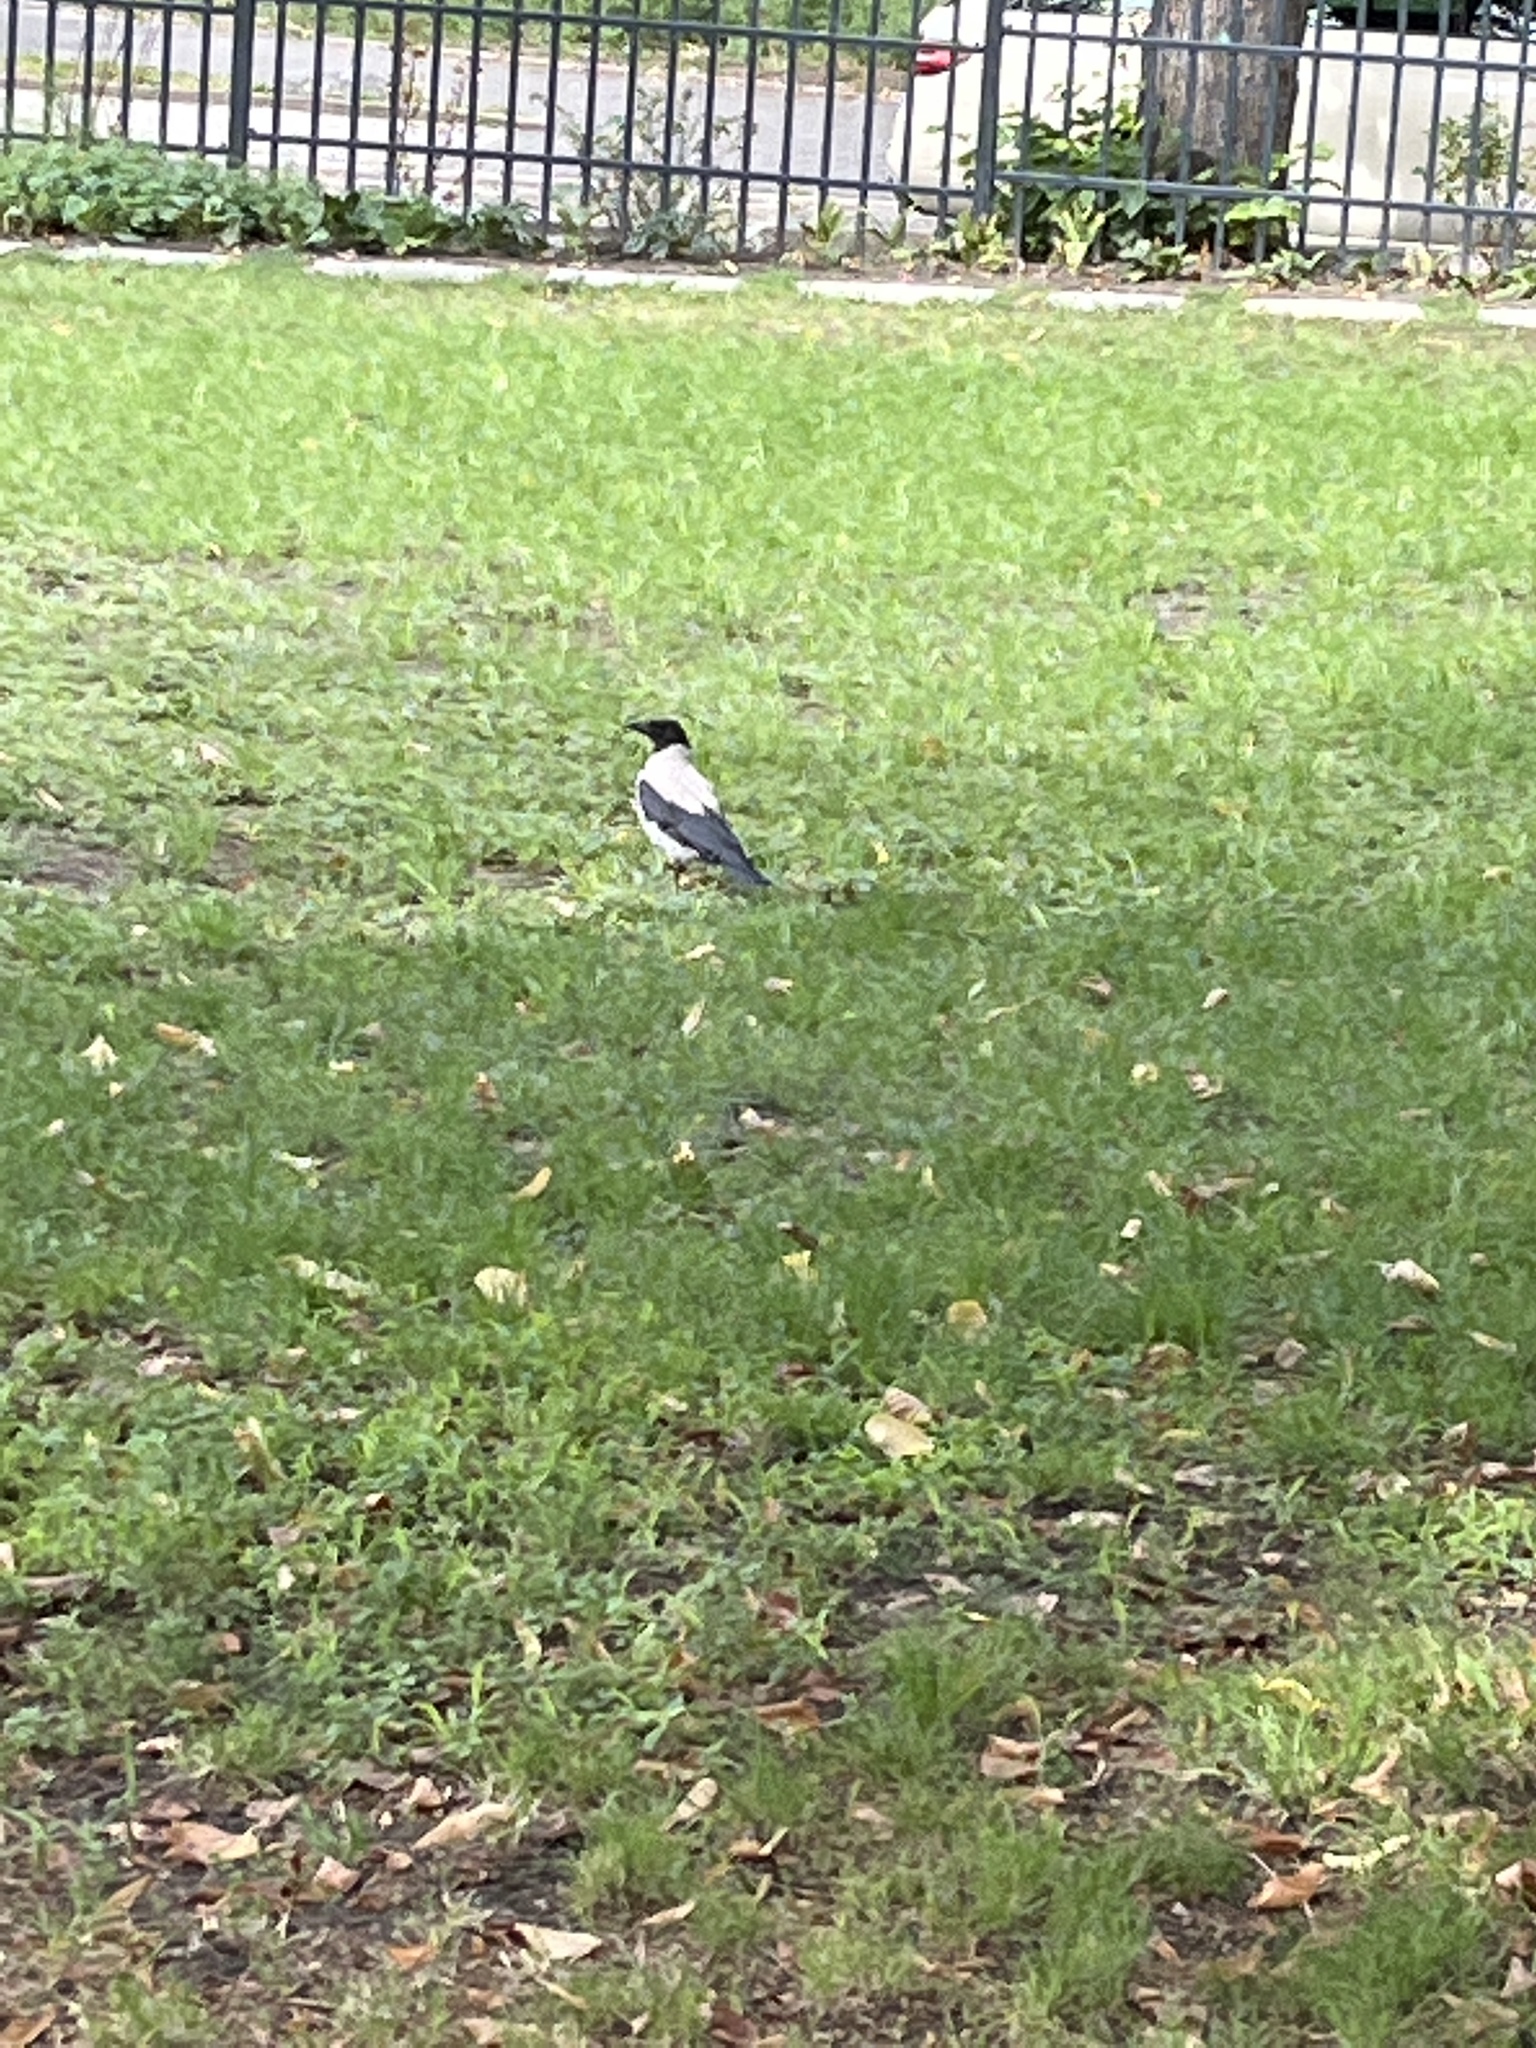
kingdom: Animalia
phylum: Chordata
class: Aves
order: Passeriformes
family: Corvidae
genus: Corvus
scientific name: Corvus cornix
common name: Hooded crow
